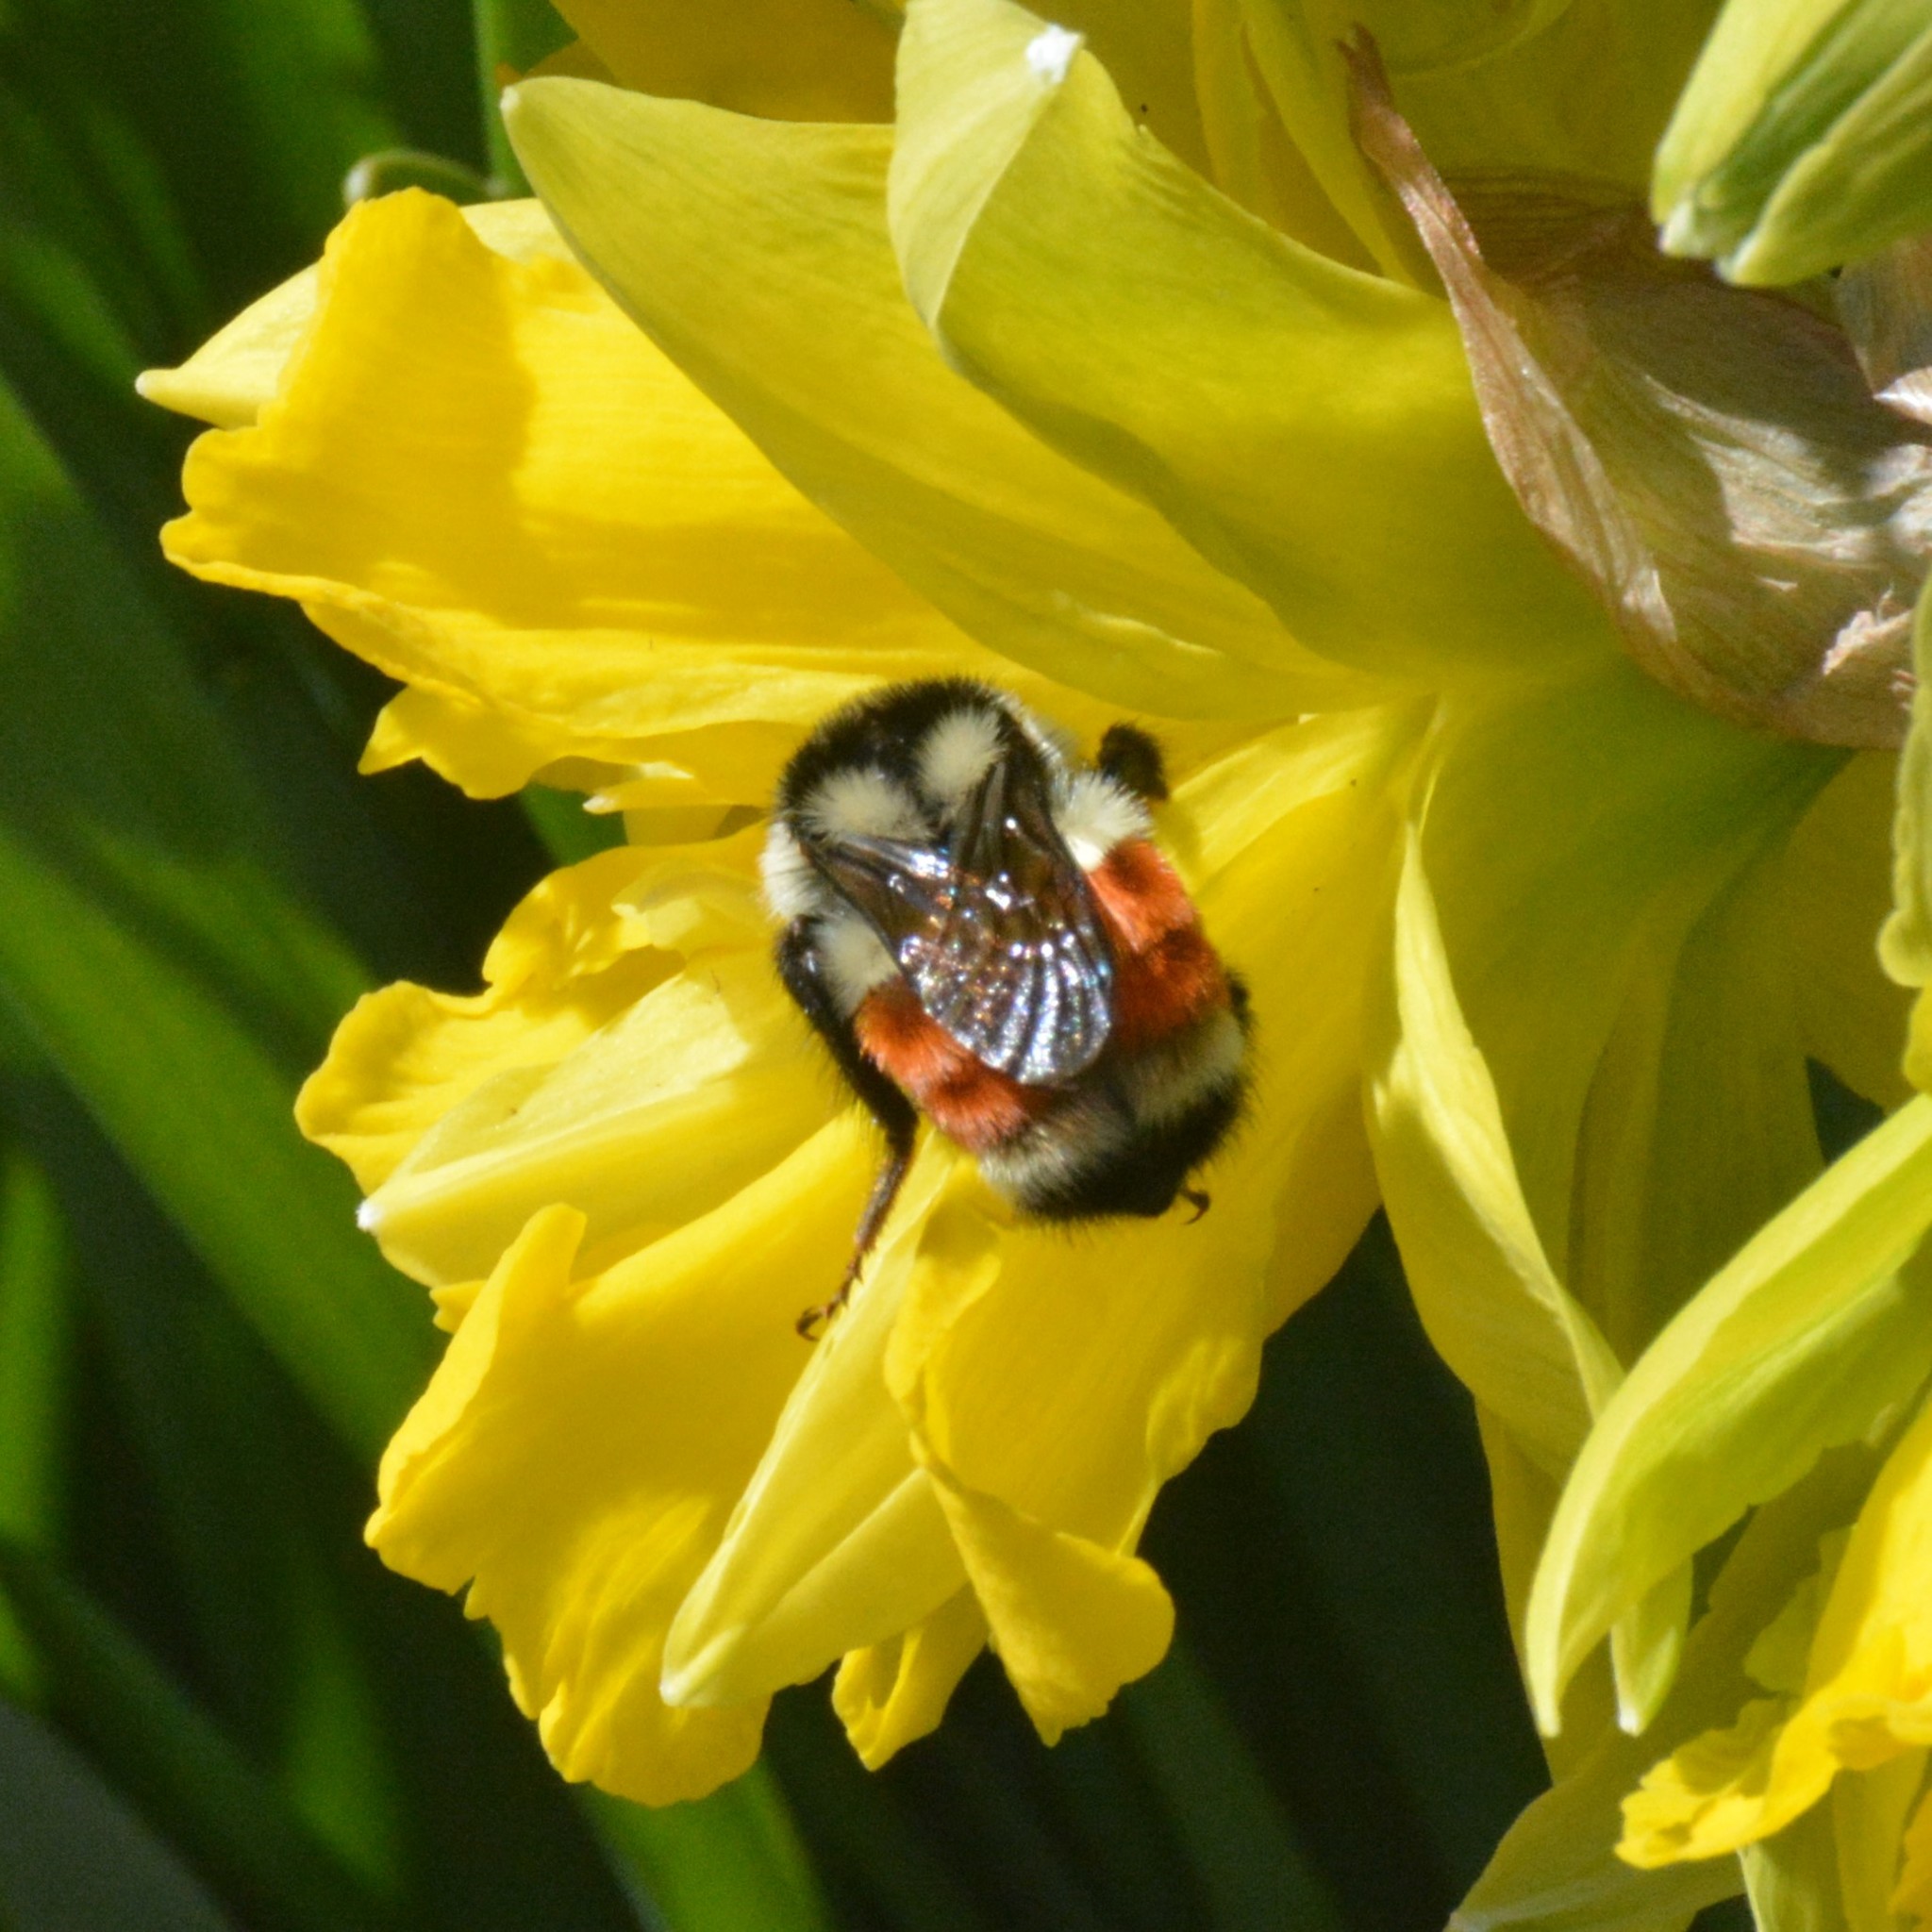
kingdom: Animalia
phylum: Arthropoda
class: Insecta
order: Hymenoptera
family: Apidae
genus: Bombus
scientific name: Bombus ternarius
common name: Tri-colored bumble bee
